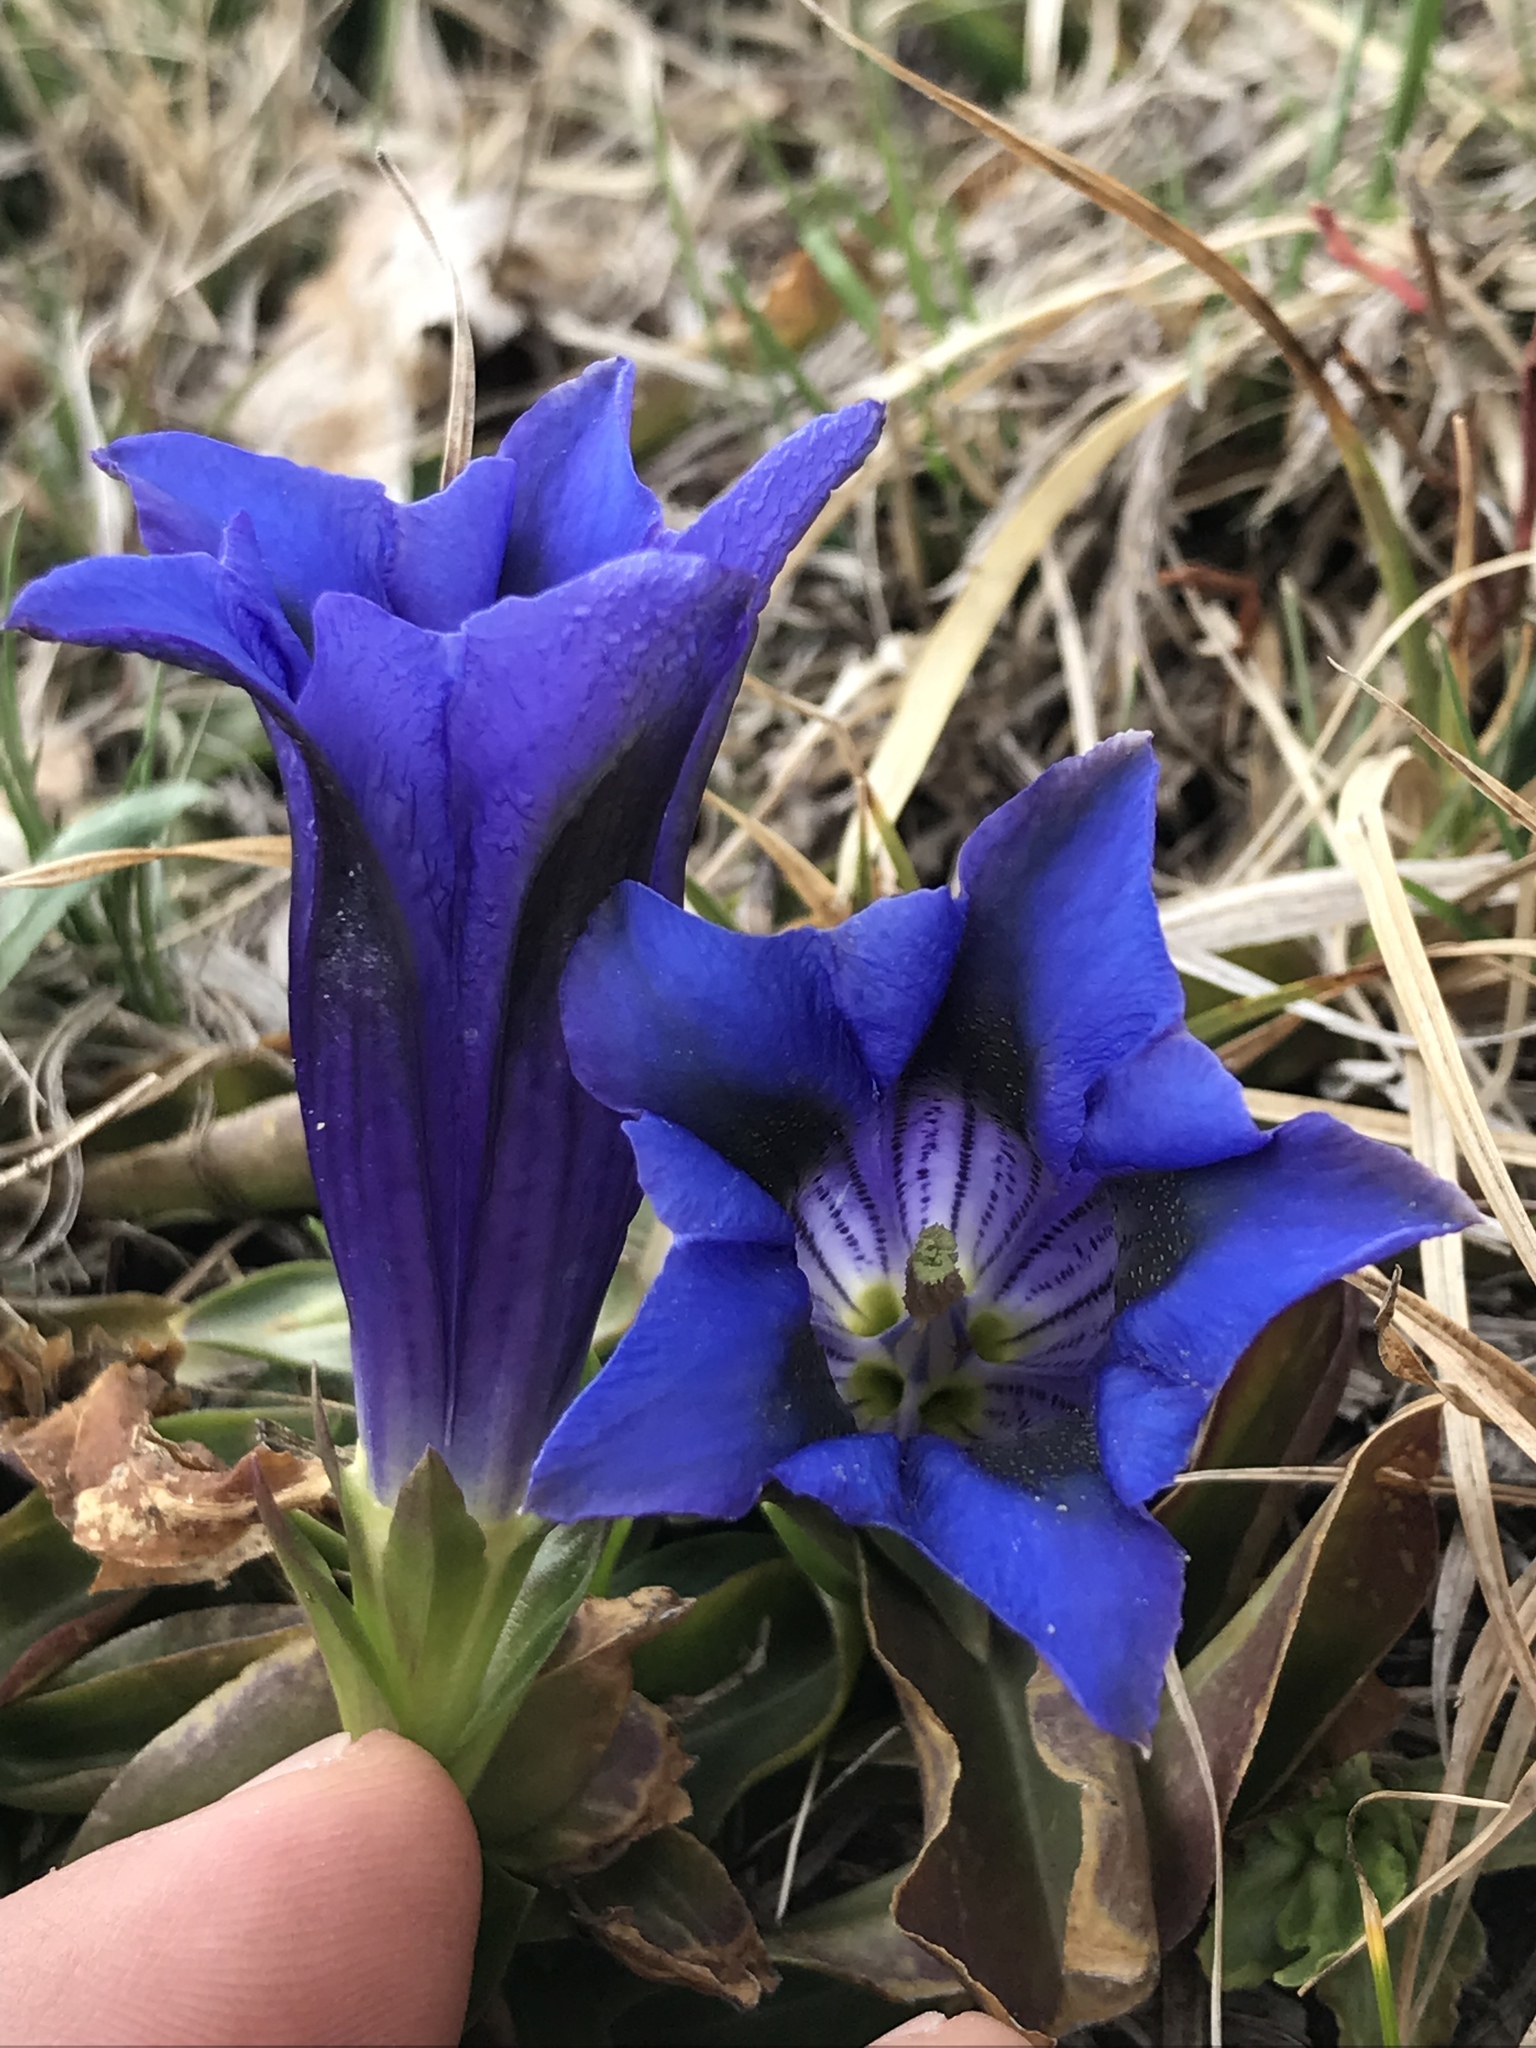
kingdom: Plantae
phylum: Tracheophyta
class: Magnoliopsida
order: Gentianales
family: Gentianaceae
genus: Gentiana
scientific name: Gentiana acaulis
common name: Trumpet gentian
